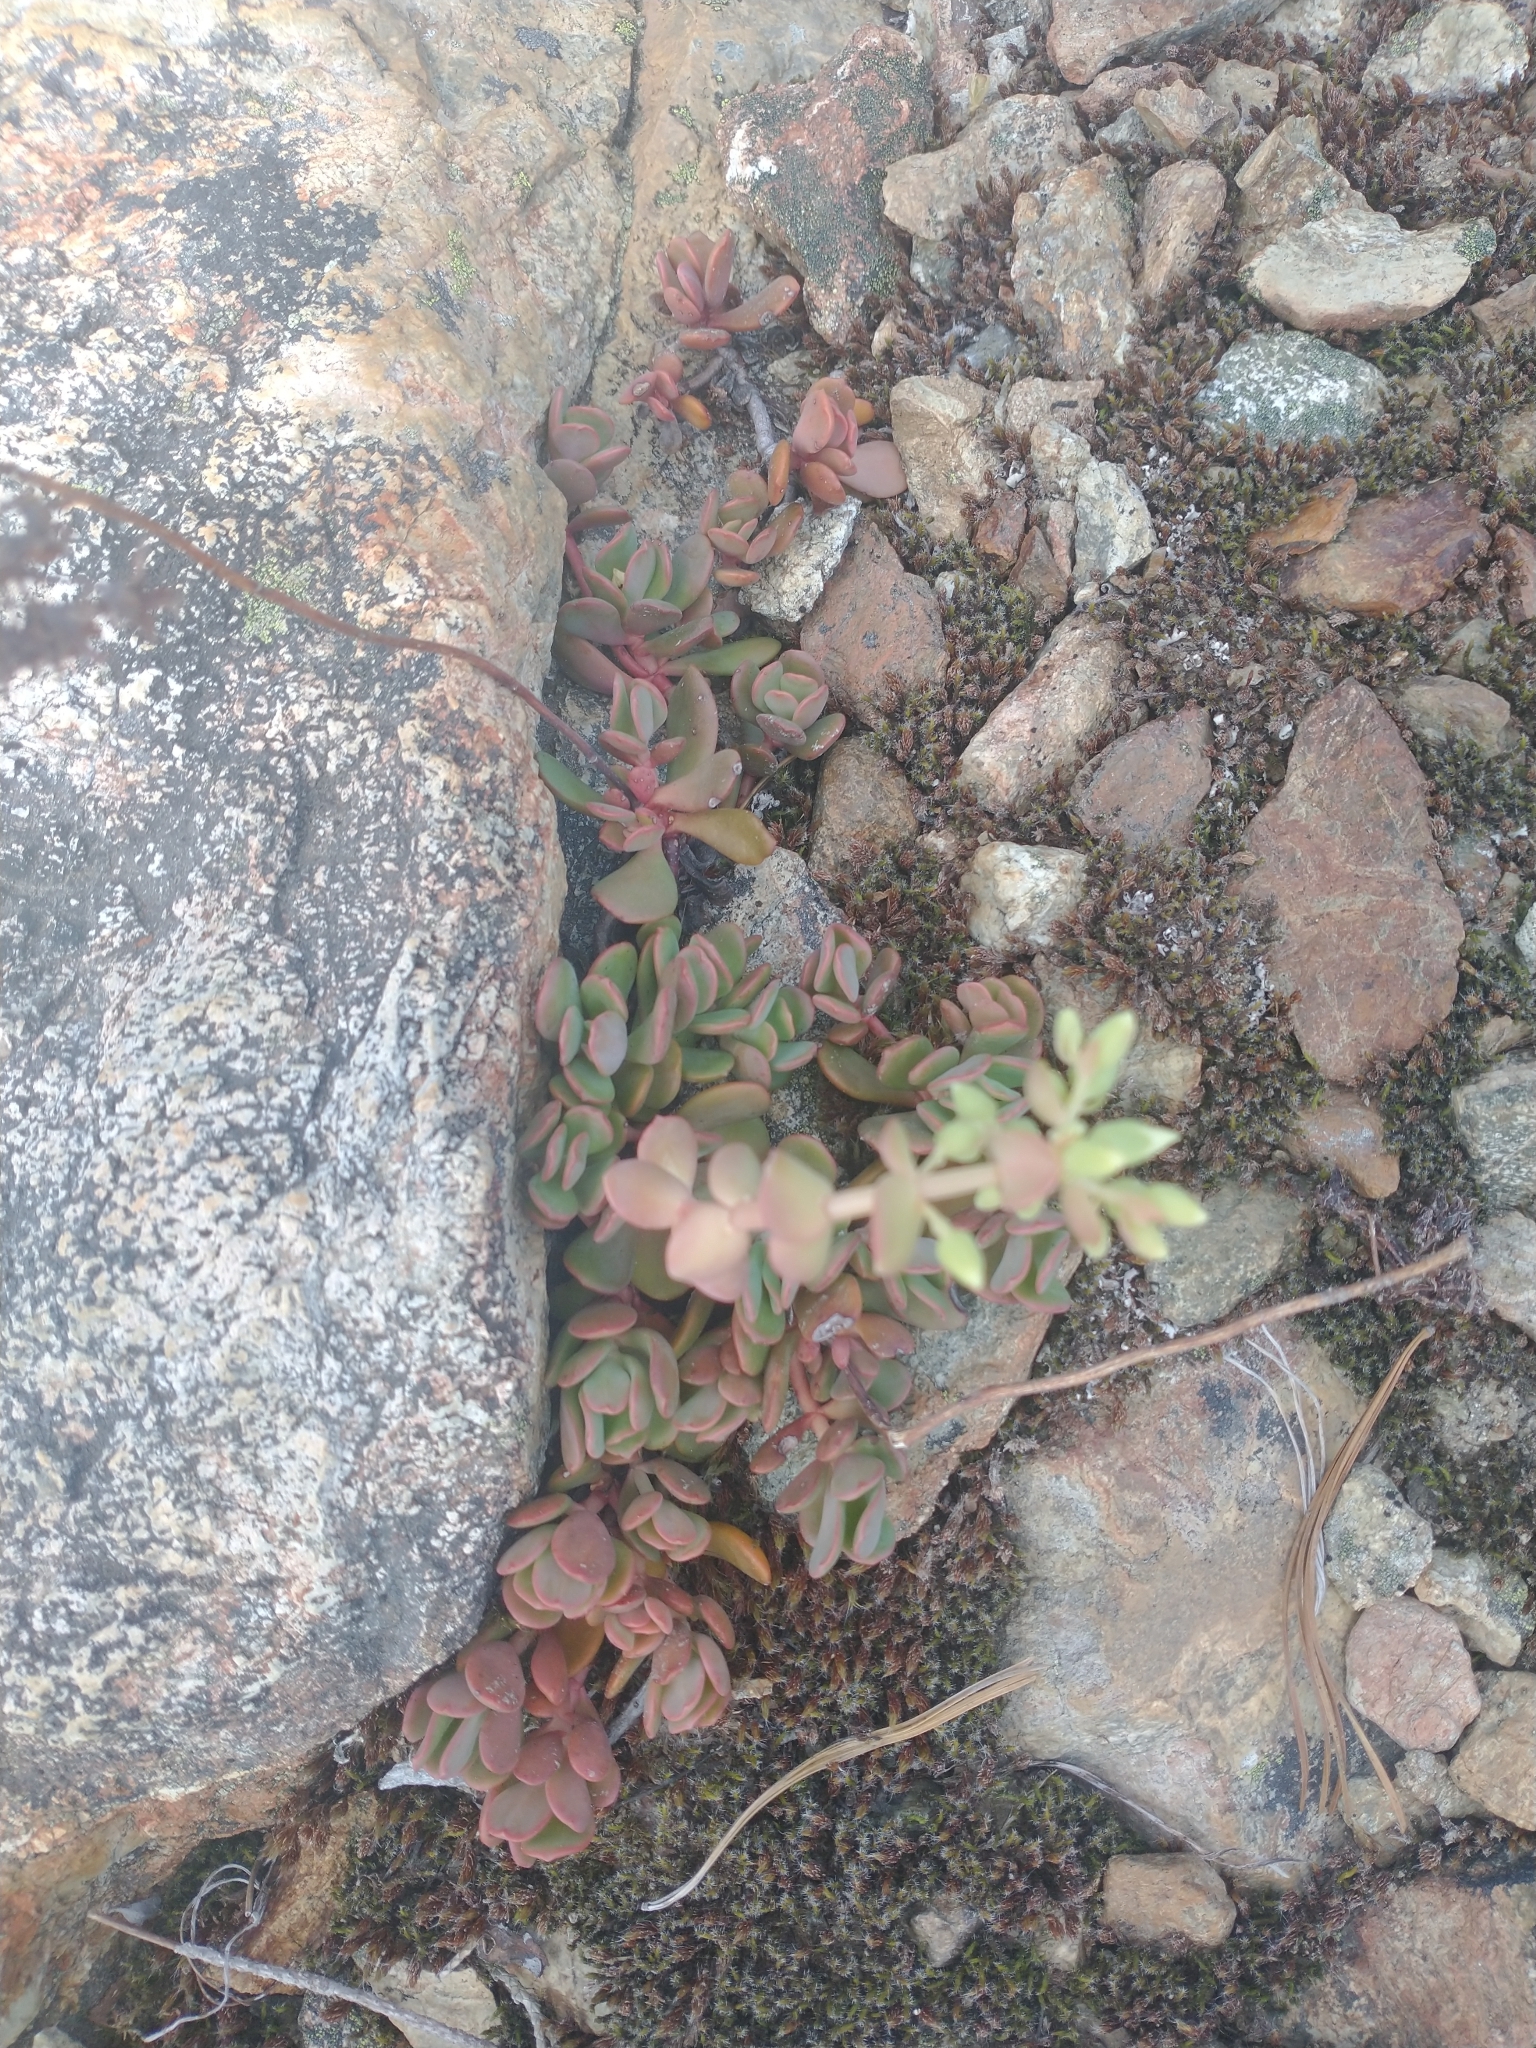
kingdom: Plantae
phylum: Tracheophyta
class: Magnoliopsida
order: Saxifragales
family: Crassulaceae
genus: Sedum
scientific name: Sedum oregonense
